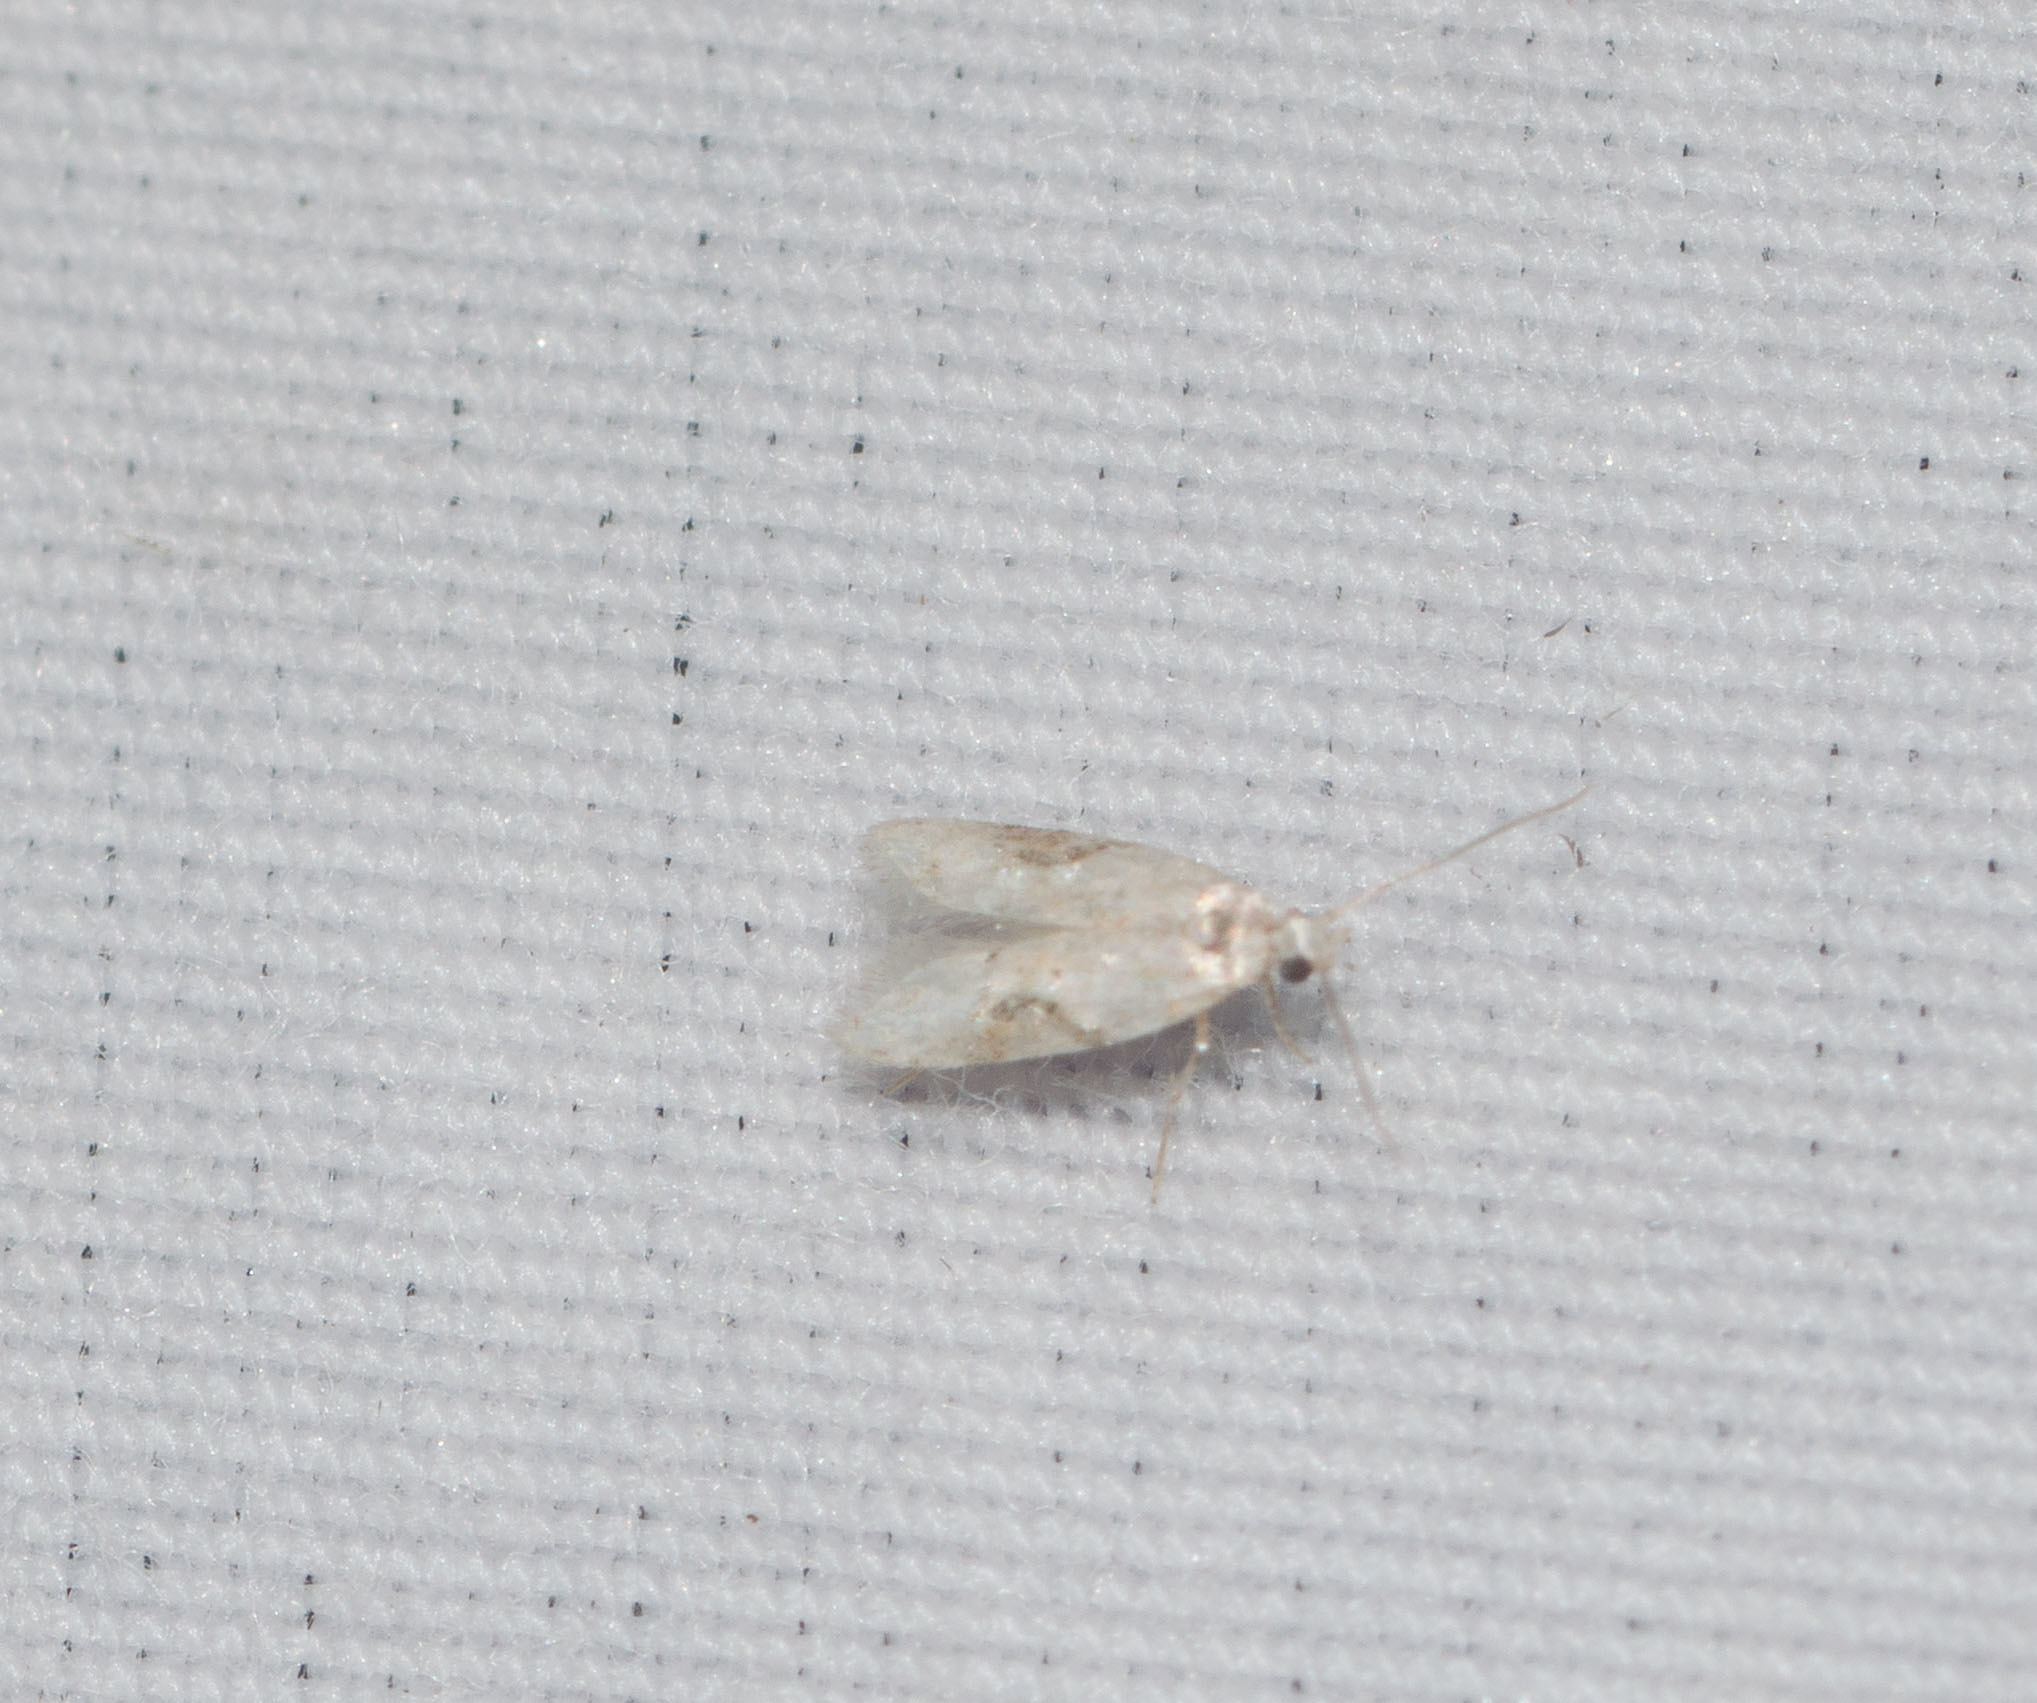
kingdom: Animalia
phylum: Arthropoda
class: Insecta
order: Lepidoptera
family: Carposinidae
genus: Carposina
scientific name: Carposina pusilla
